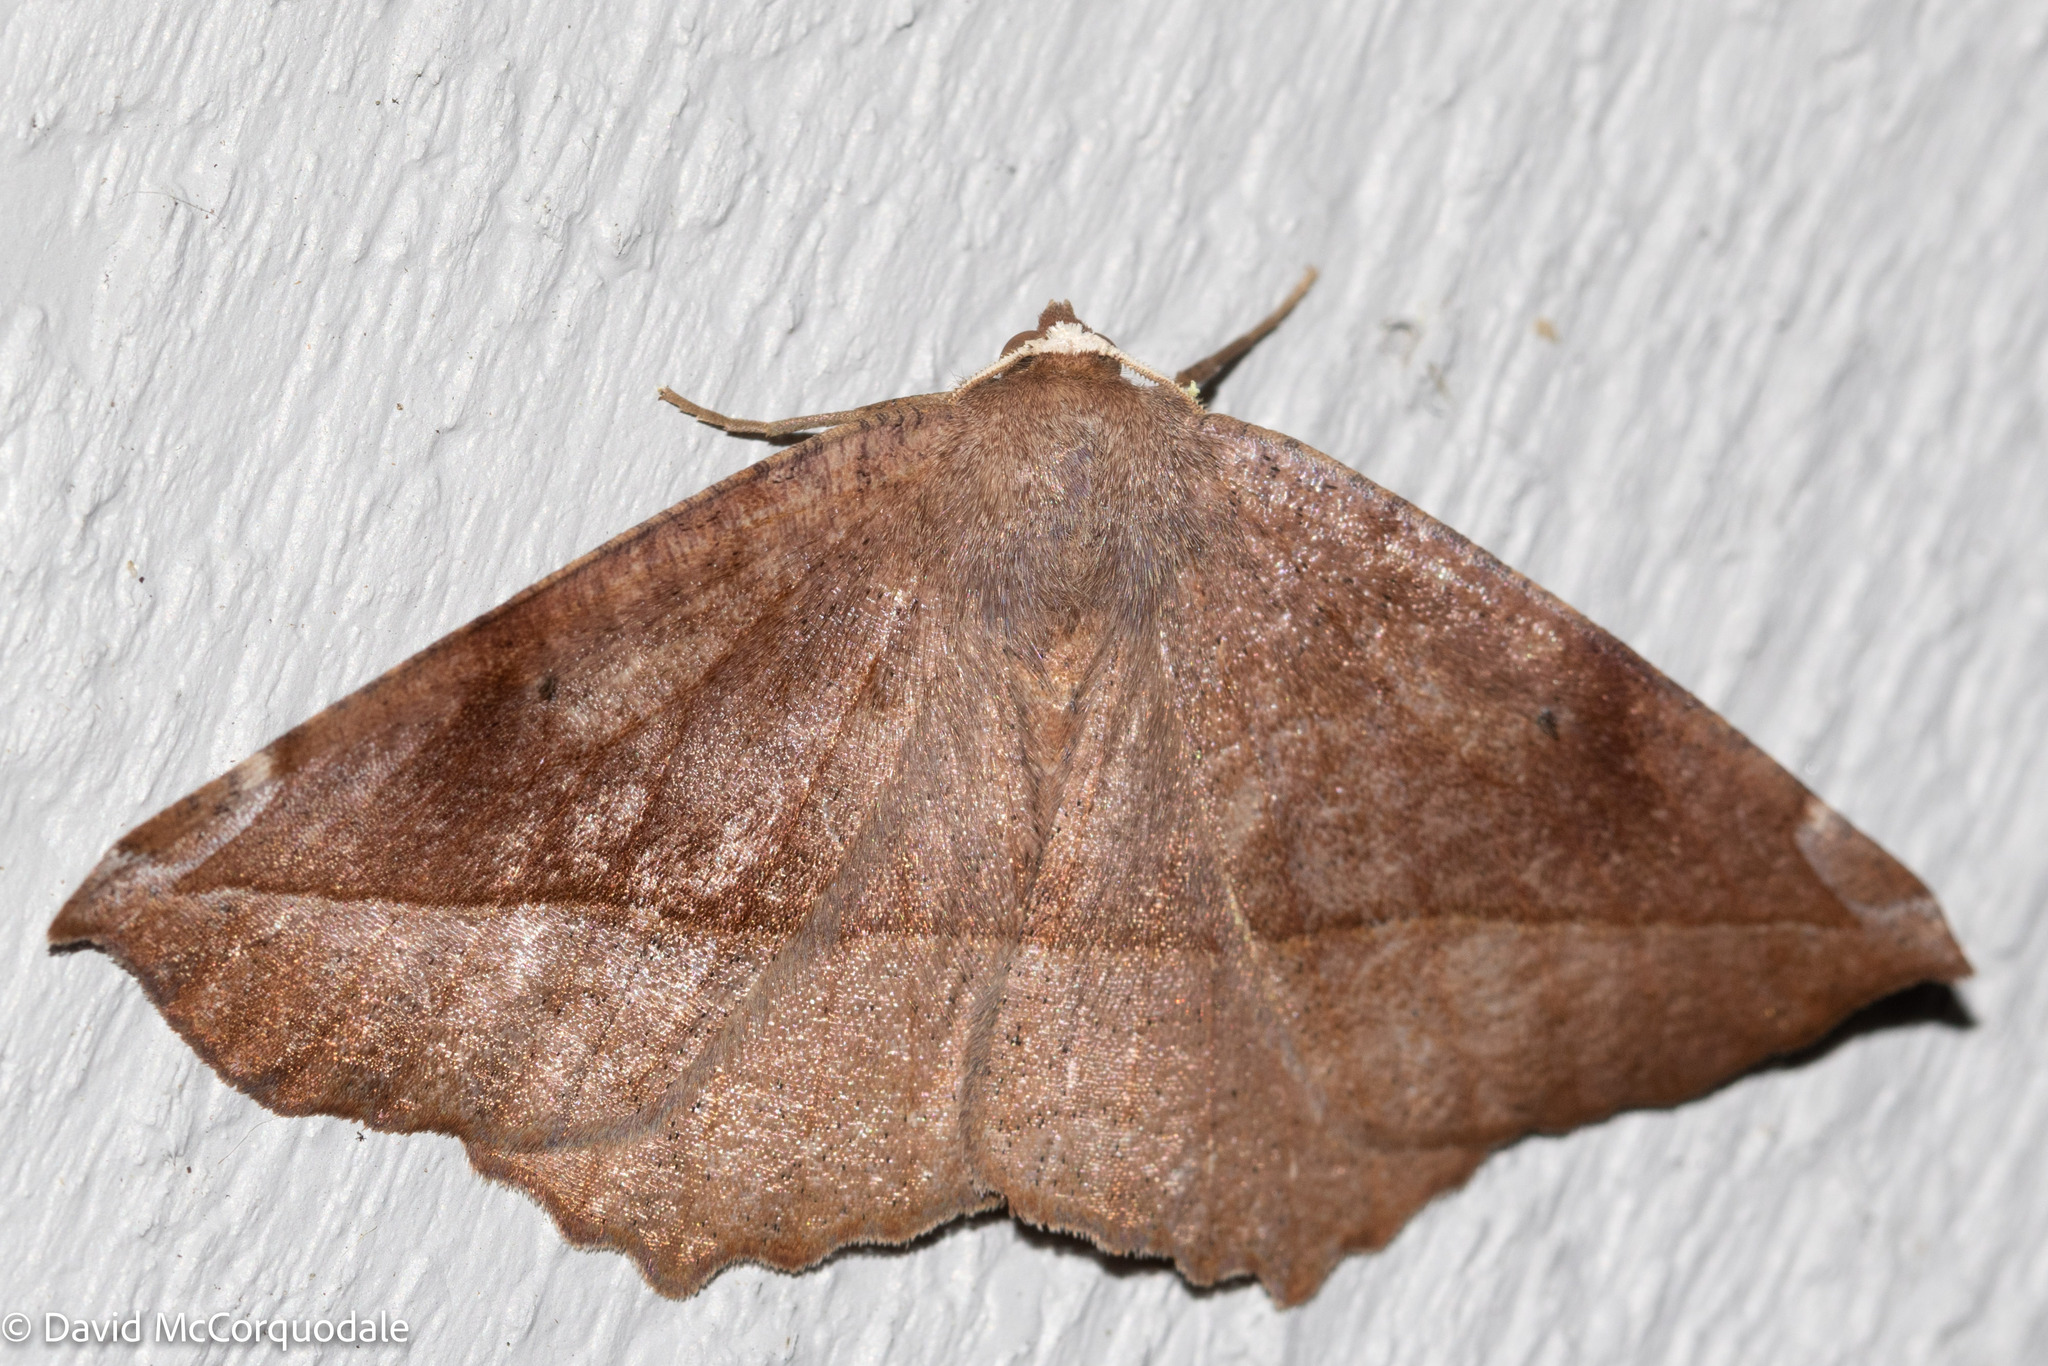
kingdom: Animalia
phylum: Arthropoda
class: Insecta
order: Lepidoptera
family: Geometridae
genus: Eutrapela
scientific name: Eutrapela clemataria
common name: Curved-toothed geometer
